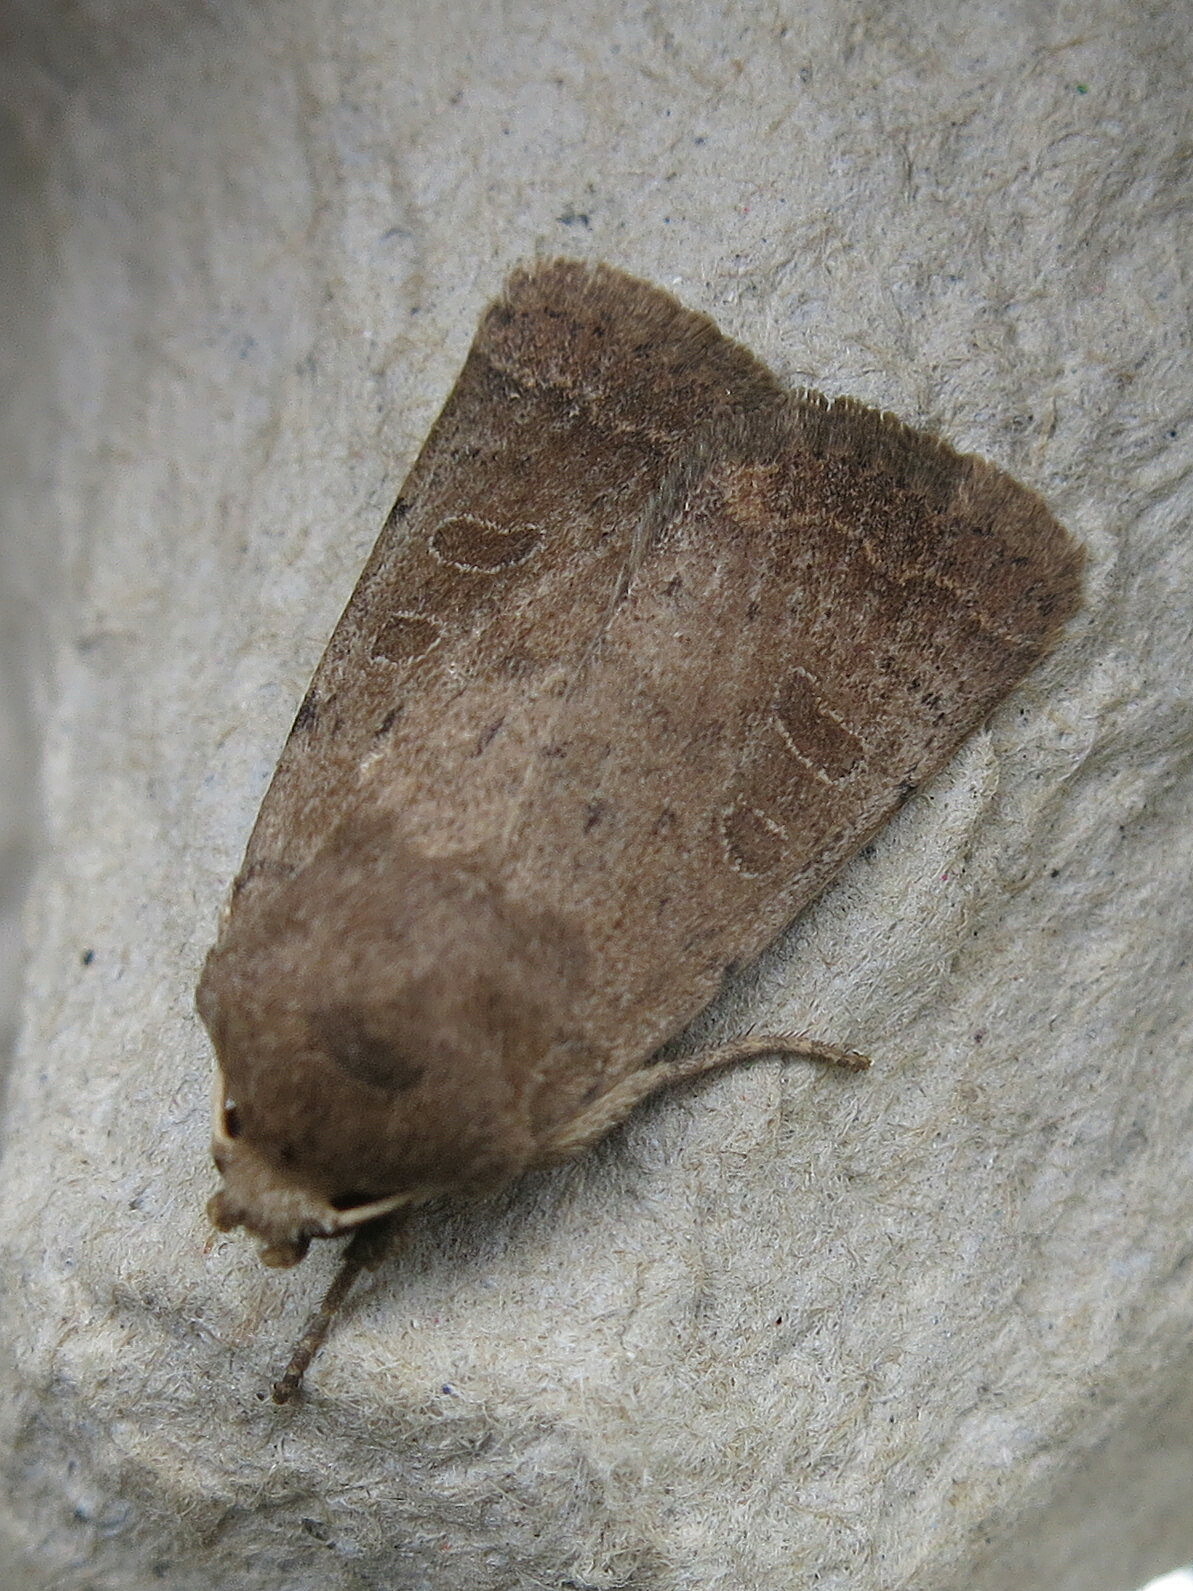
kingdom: Animalia
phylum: Arthropoda
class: Insecta
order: Lepidoptera
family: Noctuidae
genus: Hoplodrina
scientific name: Hoplodrina blanda
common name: Rustic
